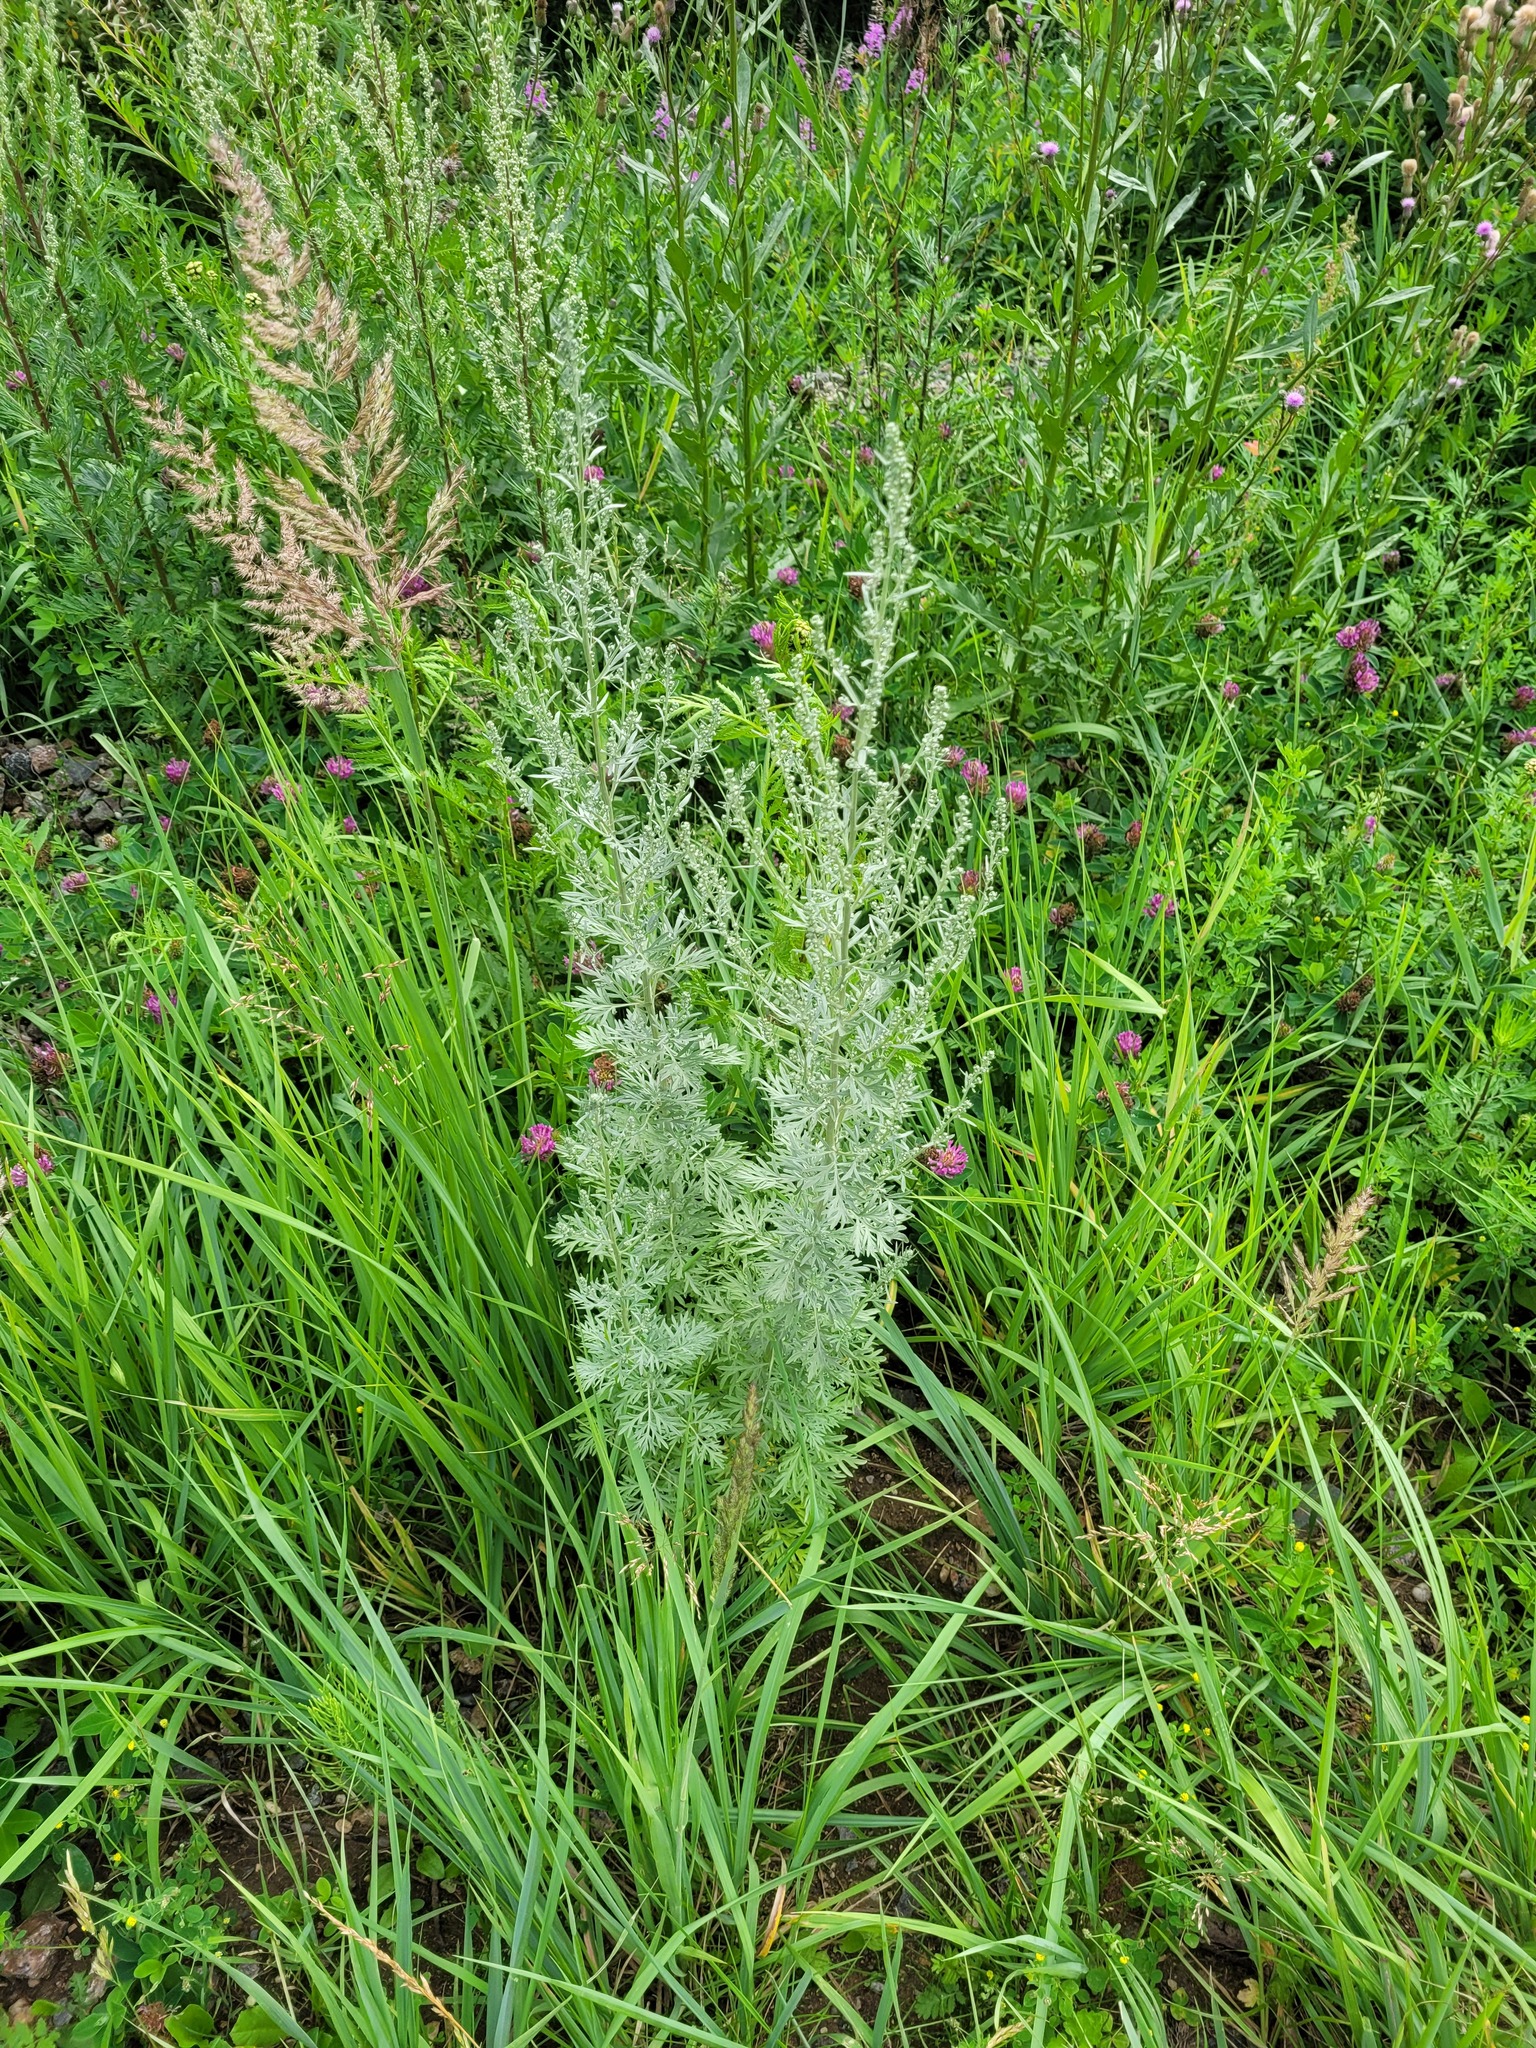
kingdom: Plantae
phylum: Tracheophyta
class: Magnoliopsida
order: Asterales
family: Asteraceae
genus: Artemisia
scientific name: Artemisia absinthium
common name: Wormwood
